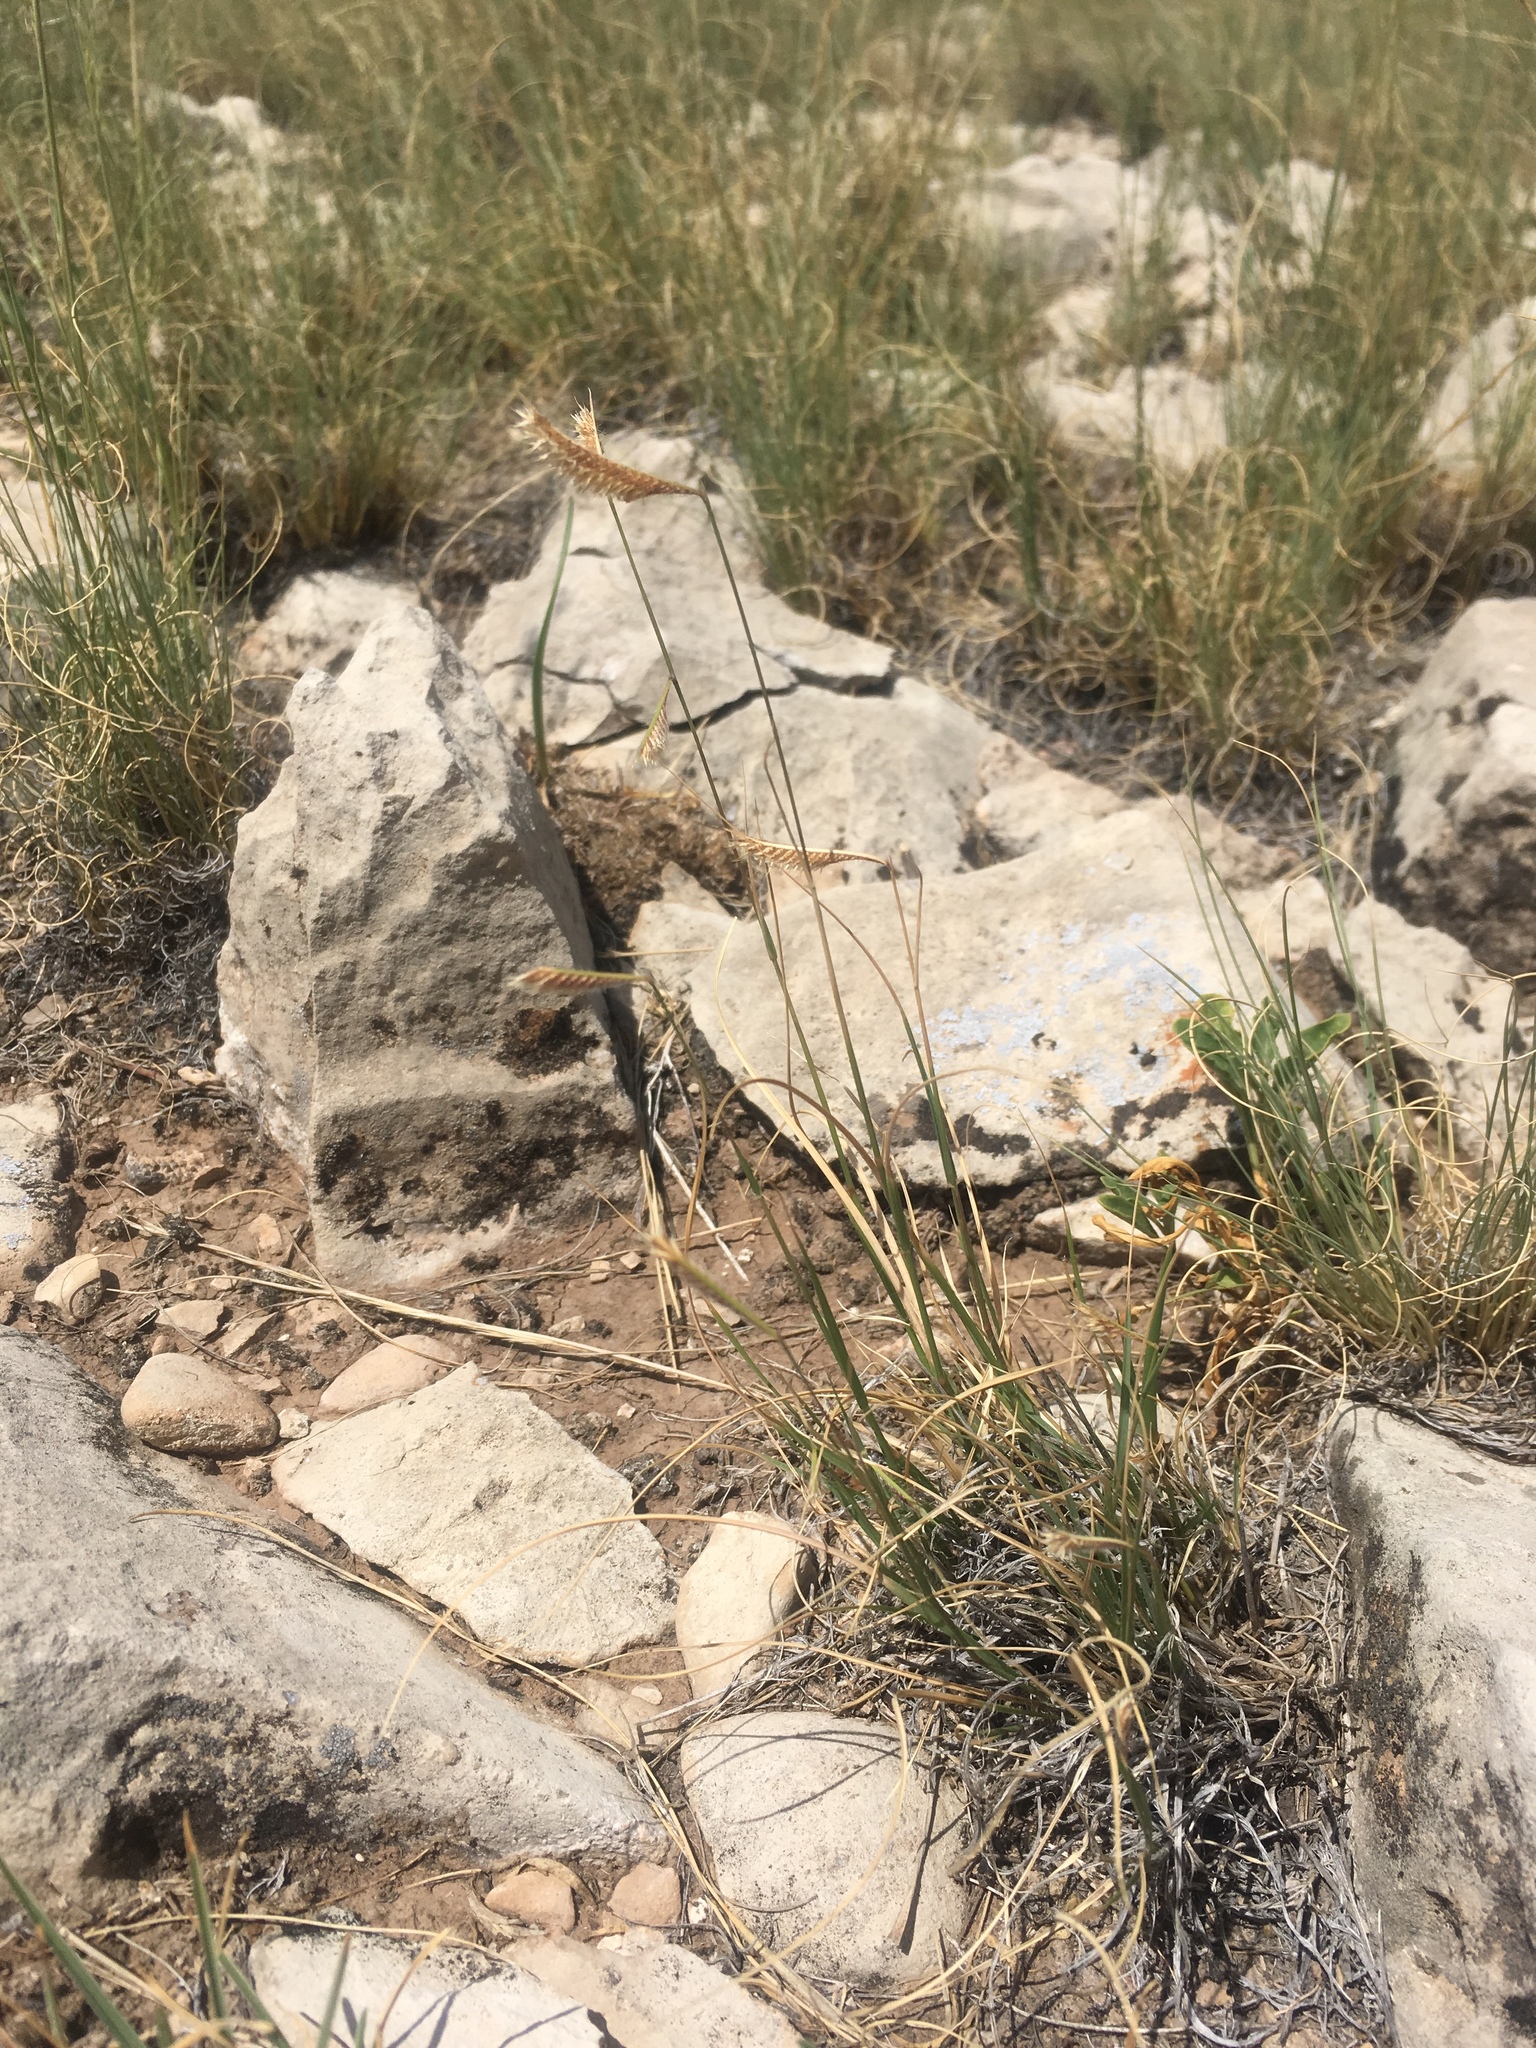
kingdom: Plantae
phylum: Tracheophyta
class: Liliopsida
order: Poales
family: Poaceae
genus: Bouteloua
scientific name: Bouteloua hirsuta
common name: Hairy grama
